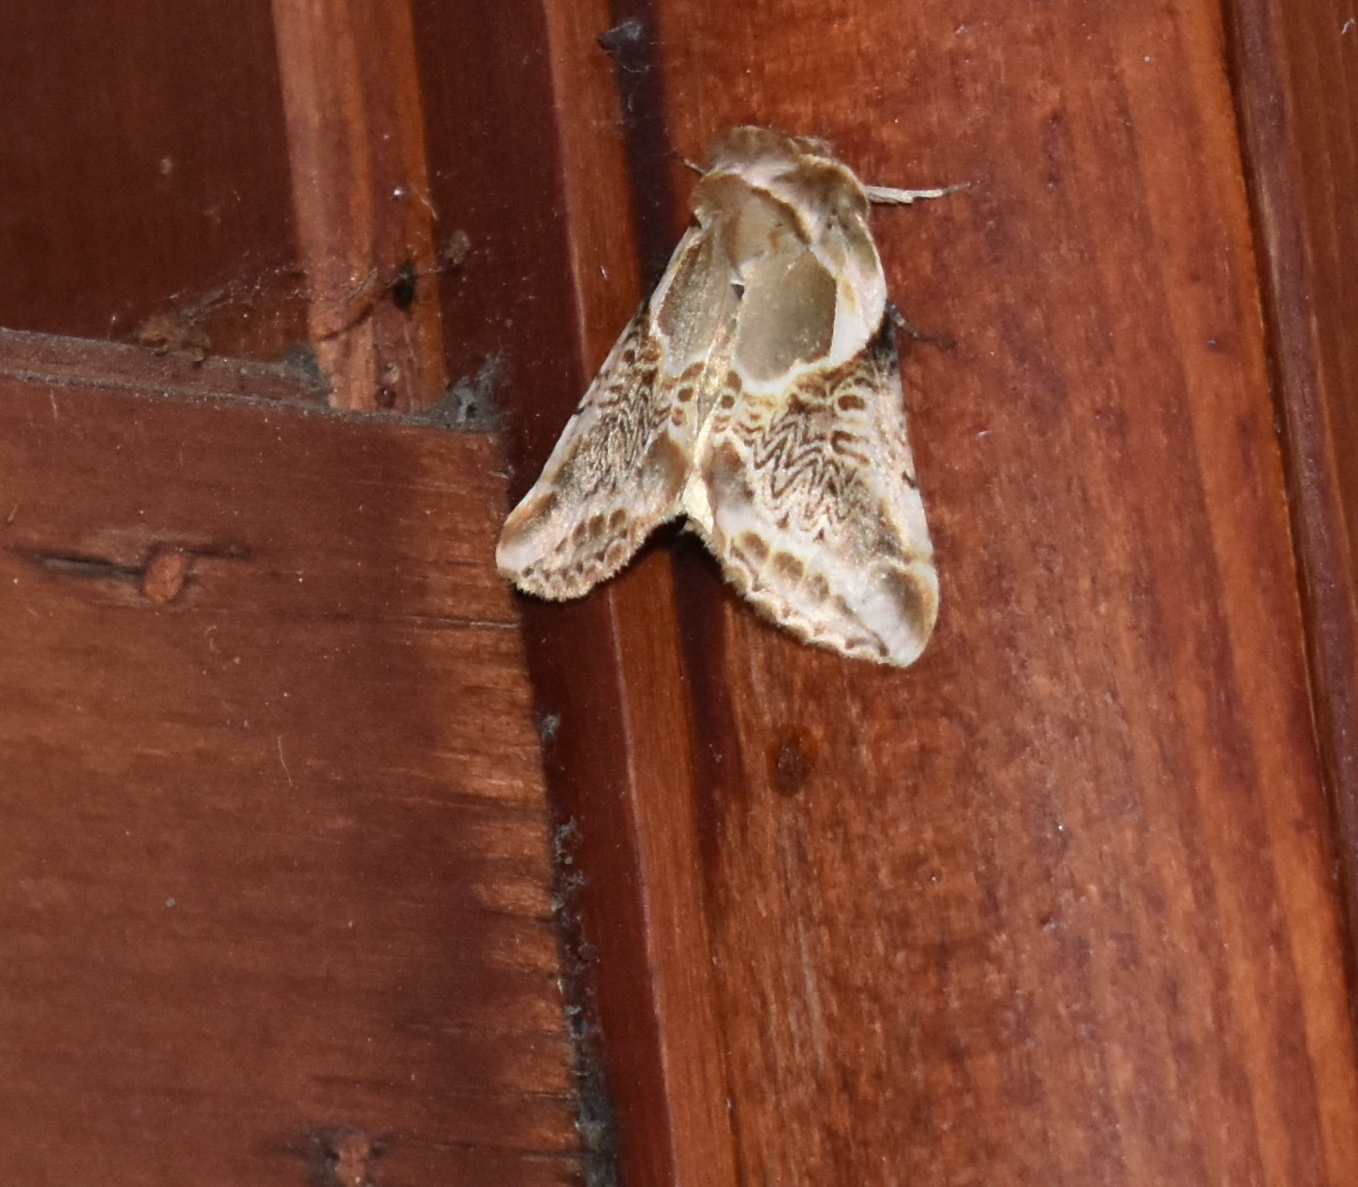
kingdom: Animalia
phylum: Arthropoda
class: Insecta
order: Lepidoptera
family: Drepanidae
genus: Habrosyne
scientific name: Habrosyne scripta
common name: Lettered habrosyne moth
